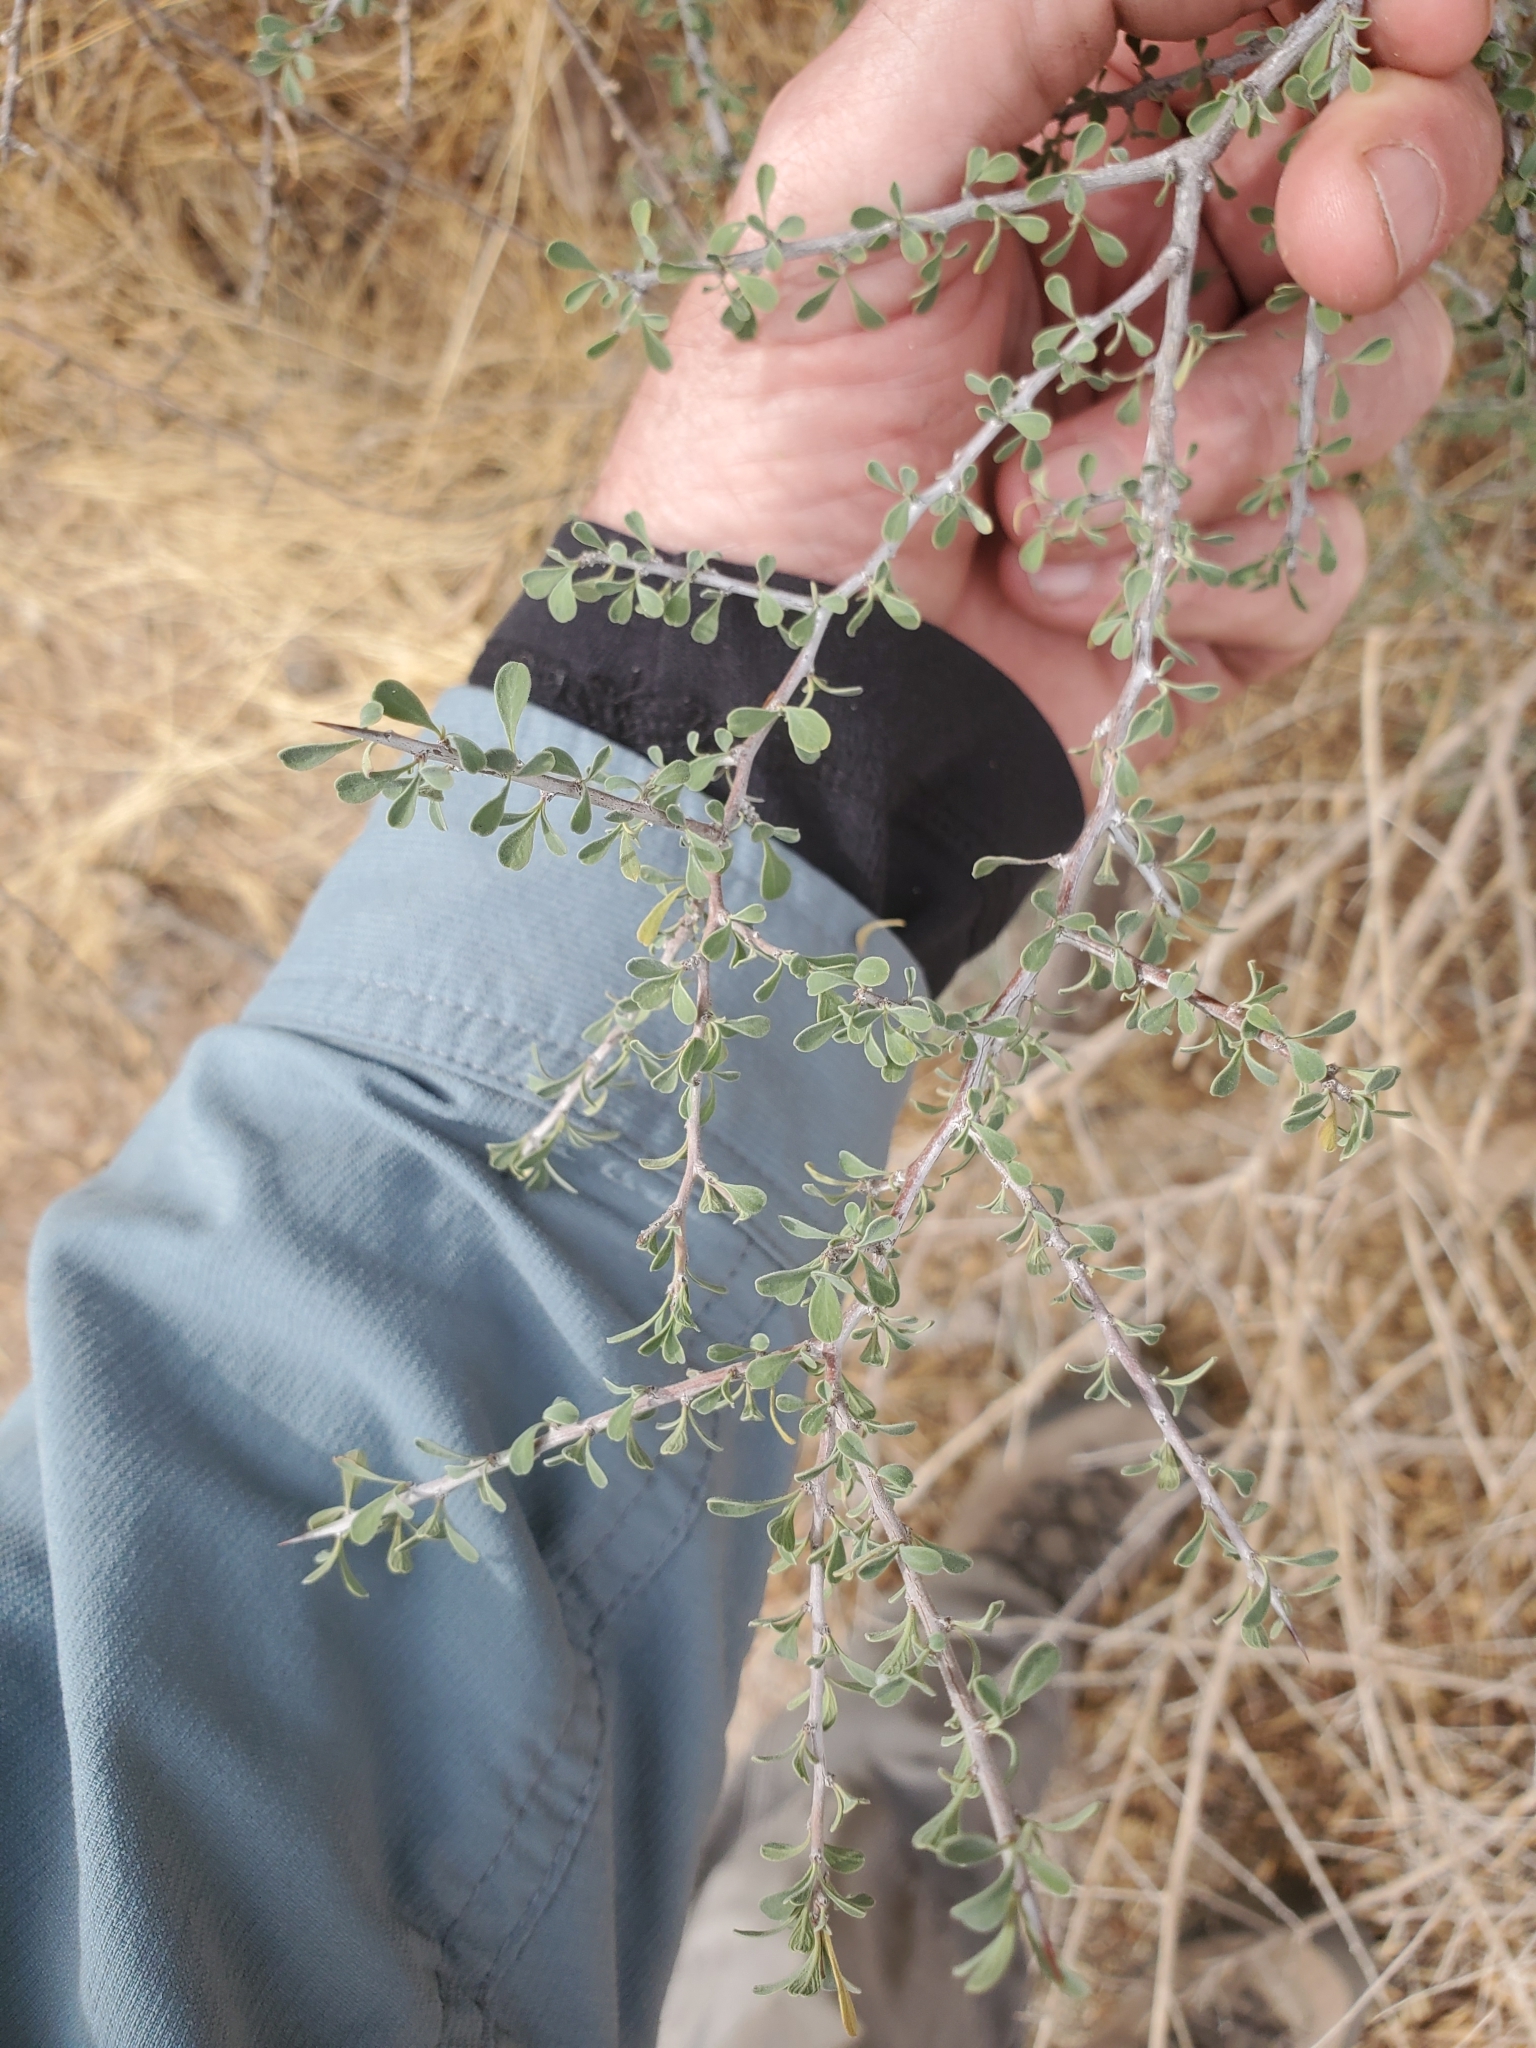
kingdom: Plantae
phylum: Tracheophyta
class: Magnoliopsida
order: Solanales
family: Solanaceae
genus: Lycium
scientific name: Lycium andersonii
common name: Water-jacket
